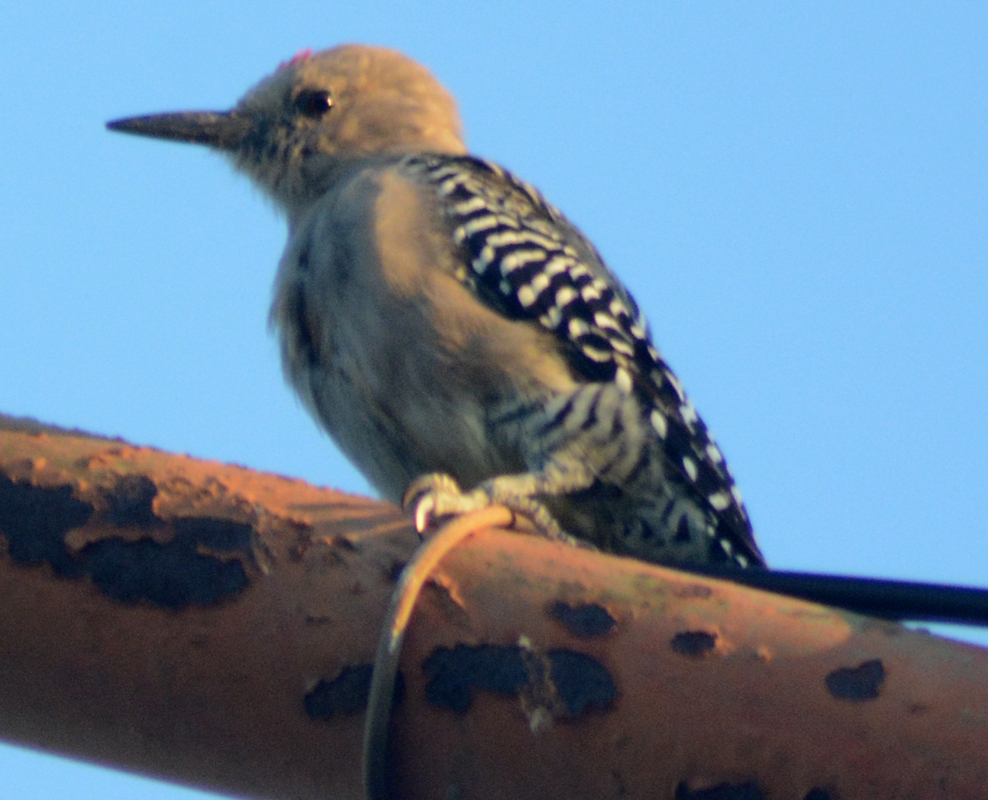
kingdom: Animalia
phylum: Chordata
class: Aves
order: Piciformes
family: Picidae
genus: Melanerpes
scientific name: Melanerpes uropygialis
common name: Gila woodpecker
